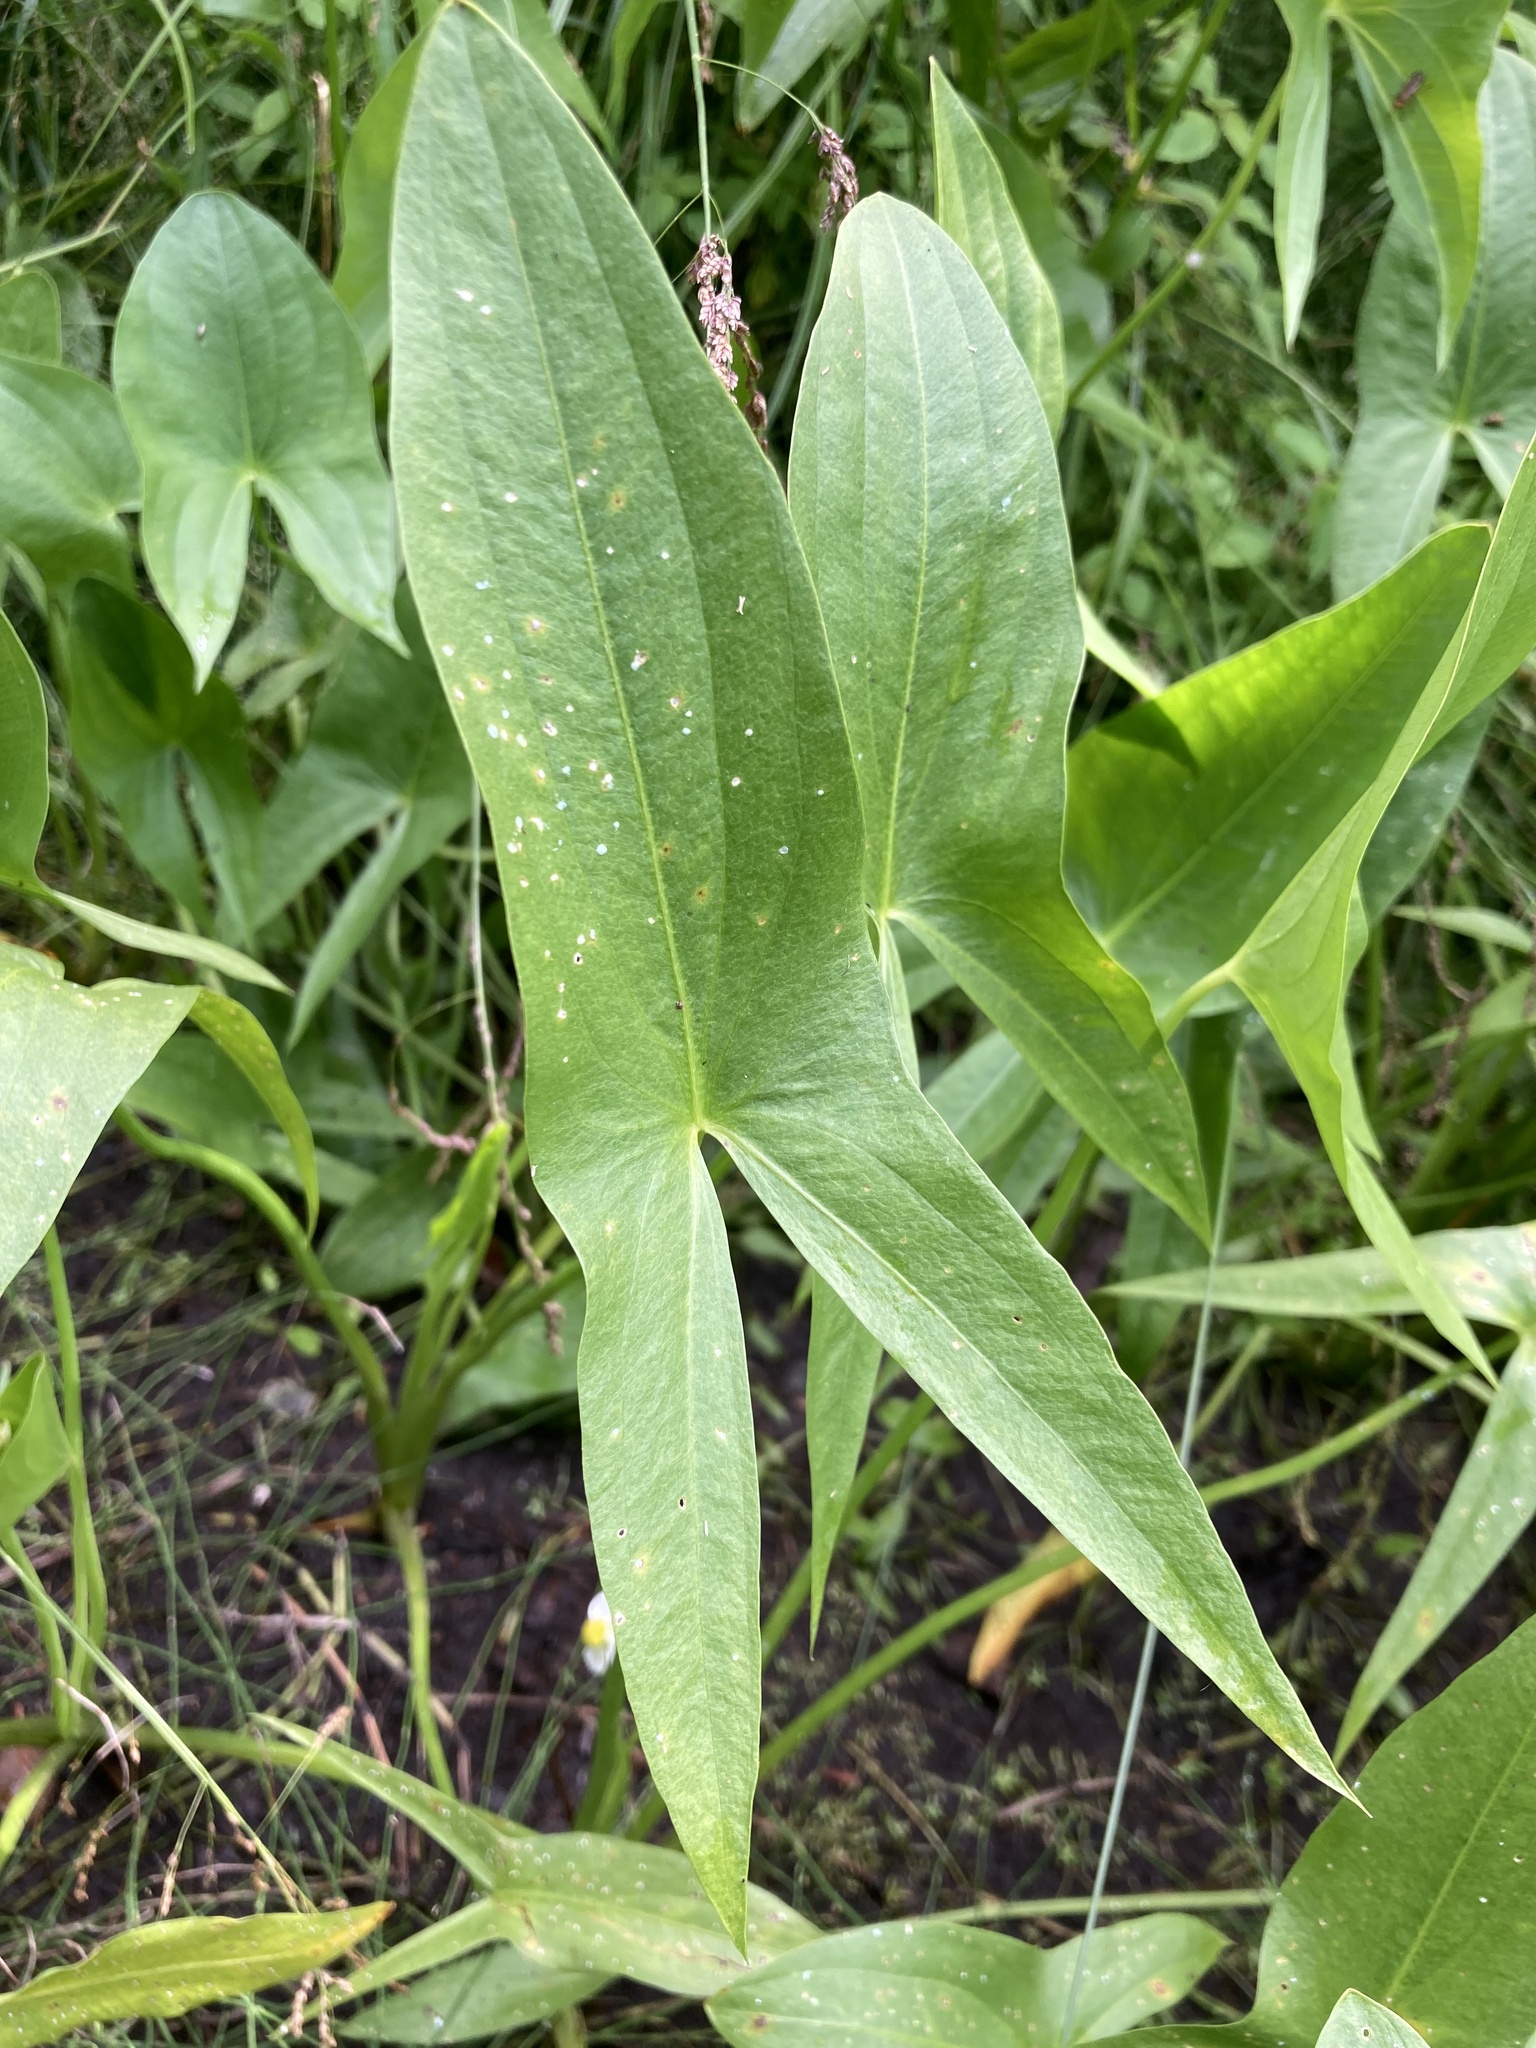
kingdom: Plantae
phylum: Tracheophyta
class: Liliopsida
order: Alismatales
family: Alismataceae
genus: Sagittaria
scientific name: Sagittaria latifolia
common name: Duck-potato
